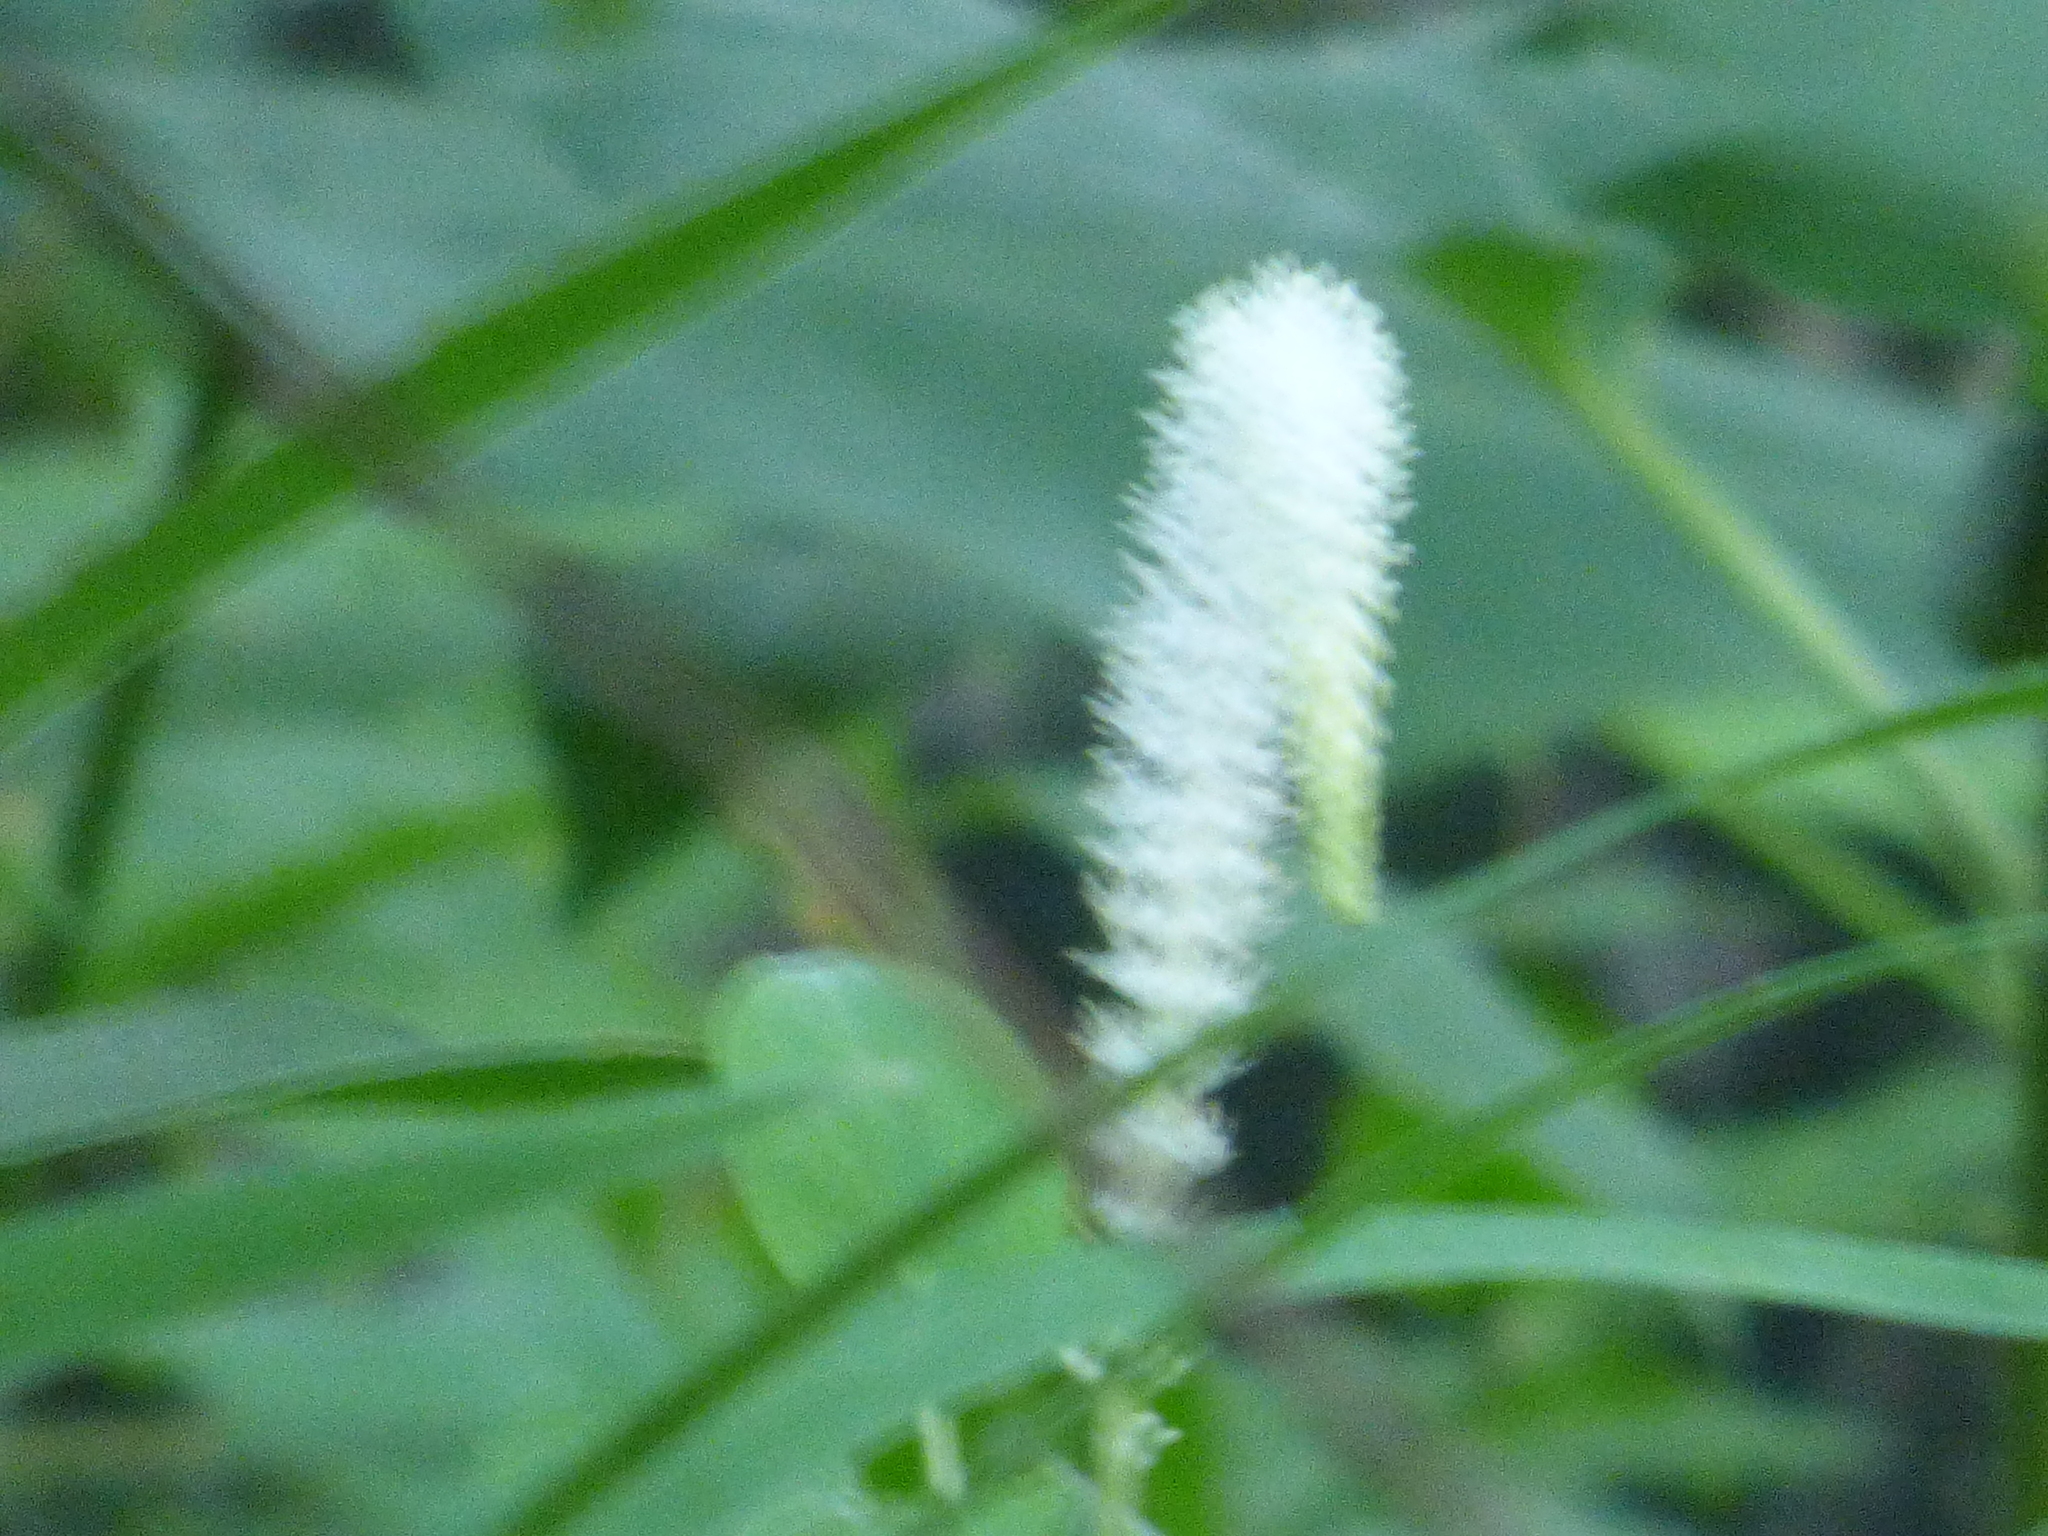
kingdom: Plantae
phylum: Tracheophyta
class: Magnoliopsida
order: Piperales
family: Saururaceae
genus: Saururus
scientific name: Saururus cernuus
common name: Lizard's-tail
